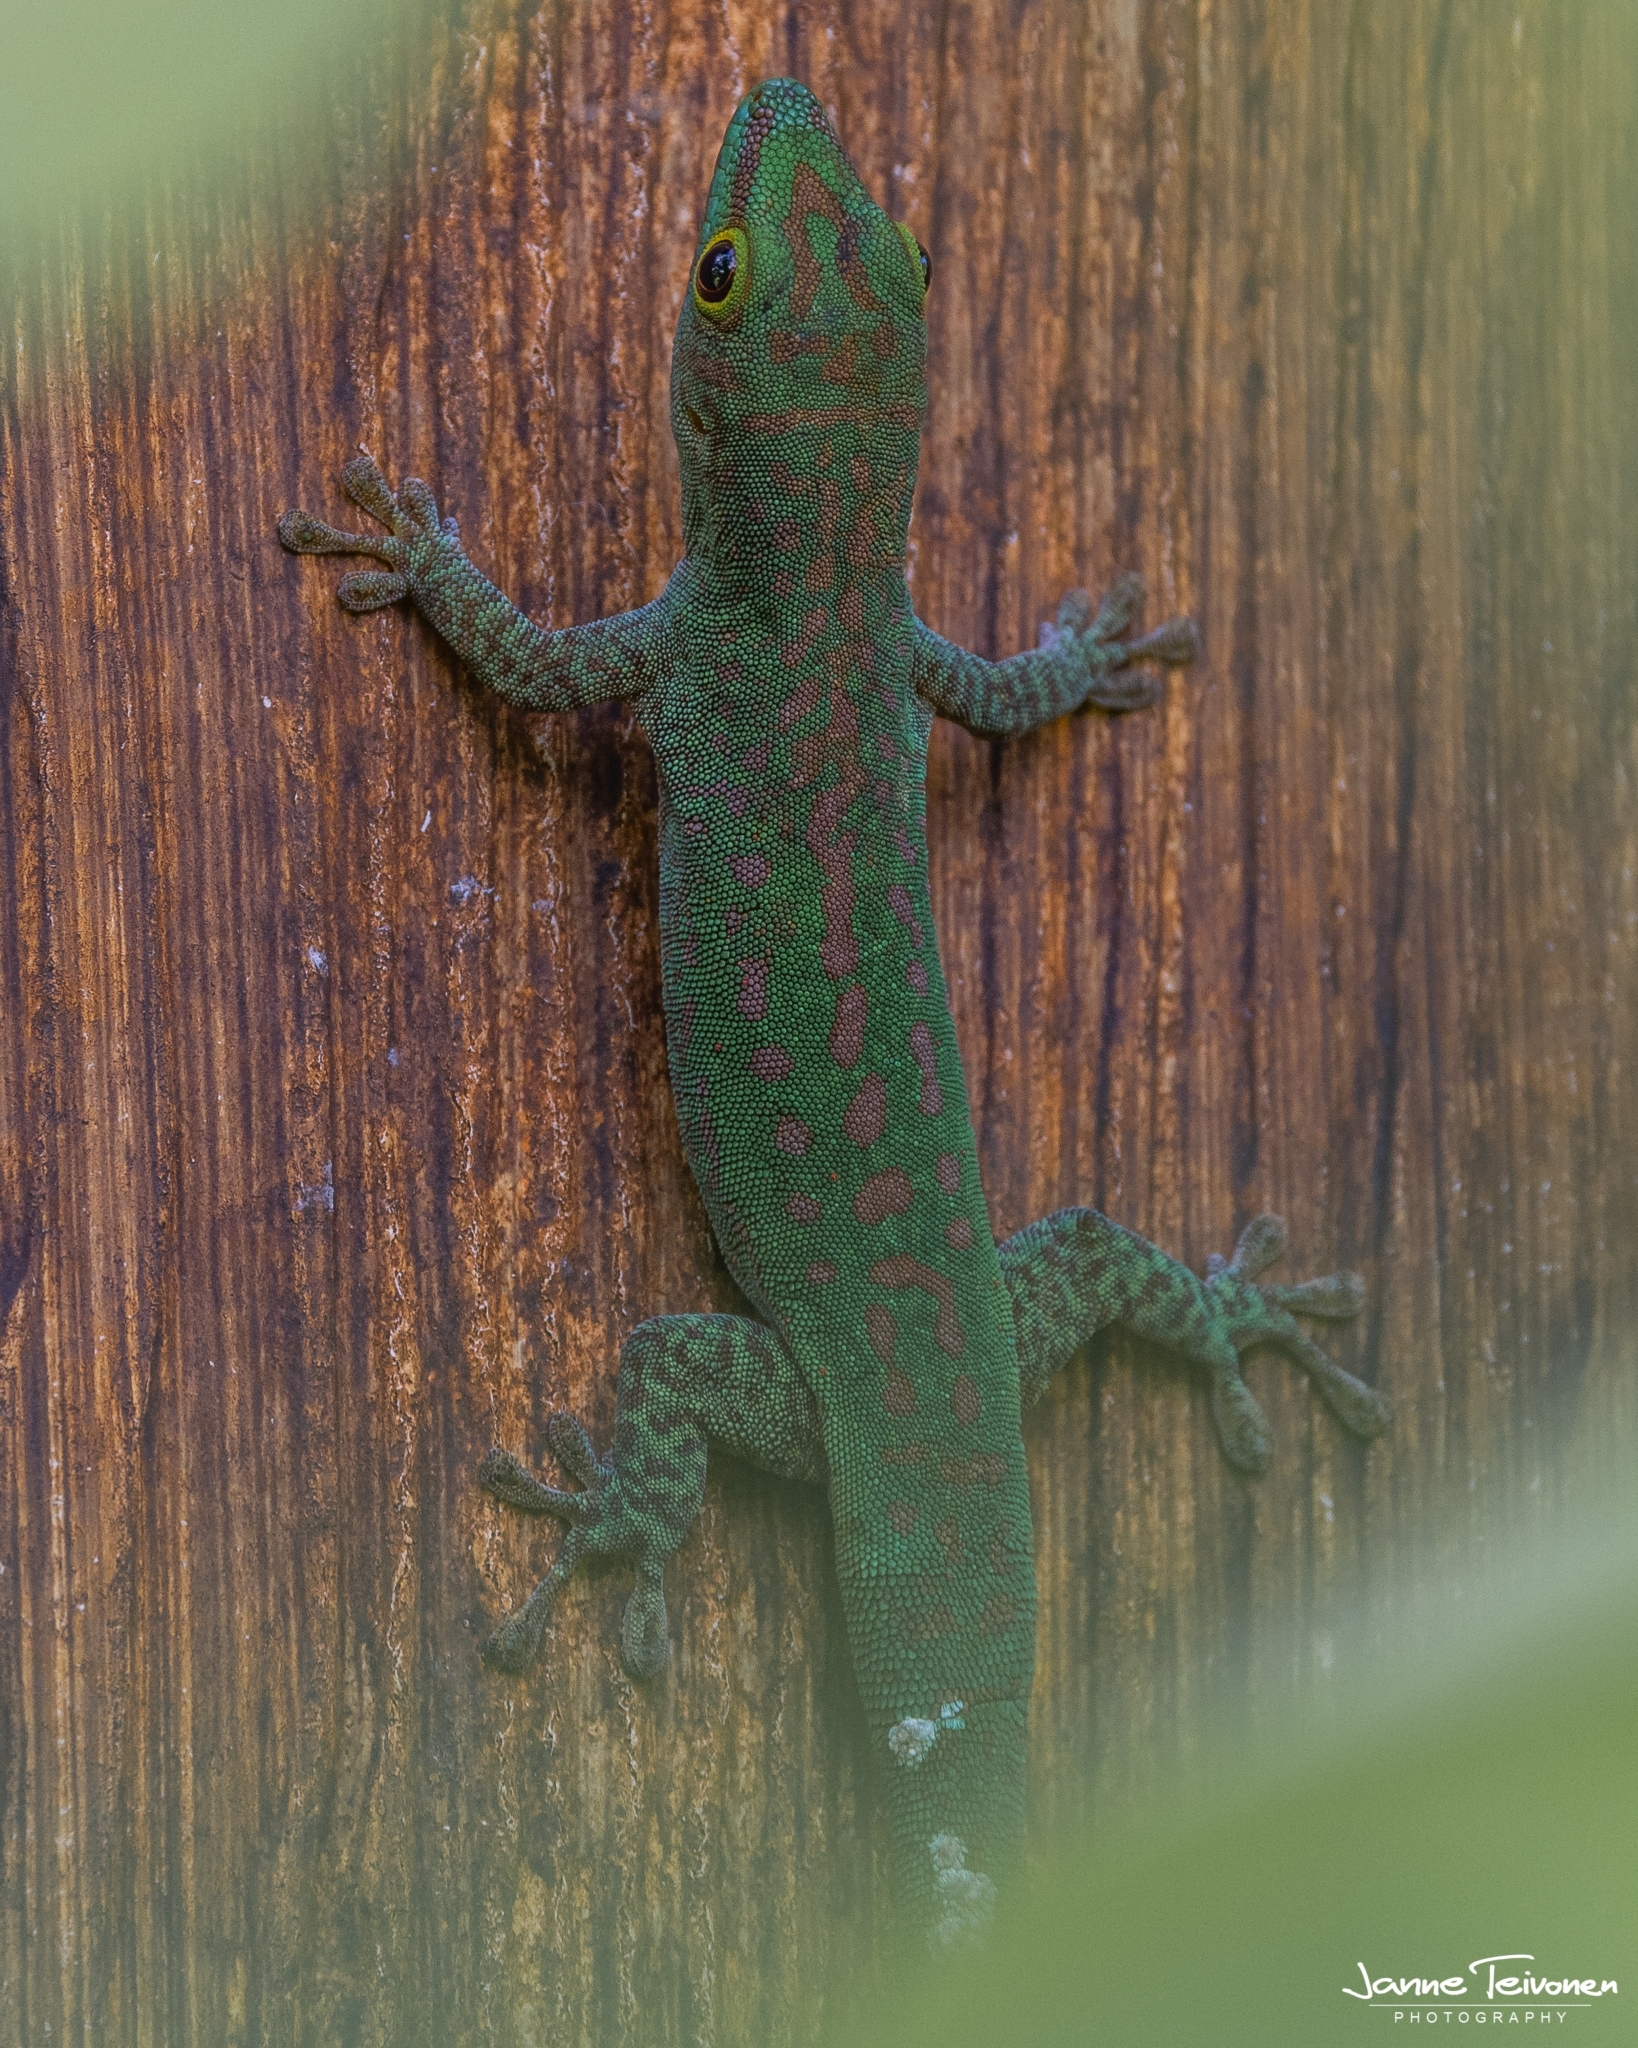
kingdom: Animalia
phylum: Chordata
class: Squamata
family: Gekkonidae
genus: Phelsuma
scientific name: Phelsuma sundbergi
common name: Seychelles giant day gecko
